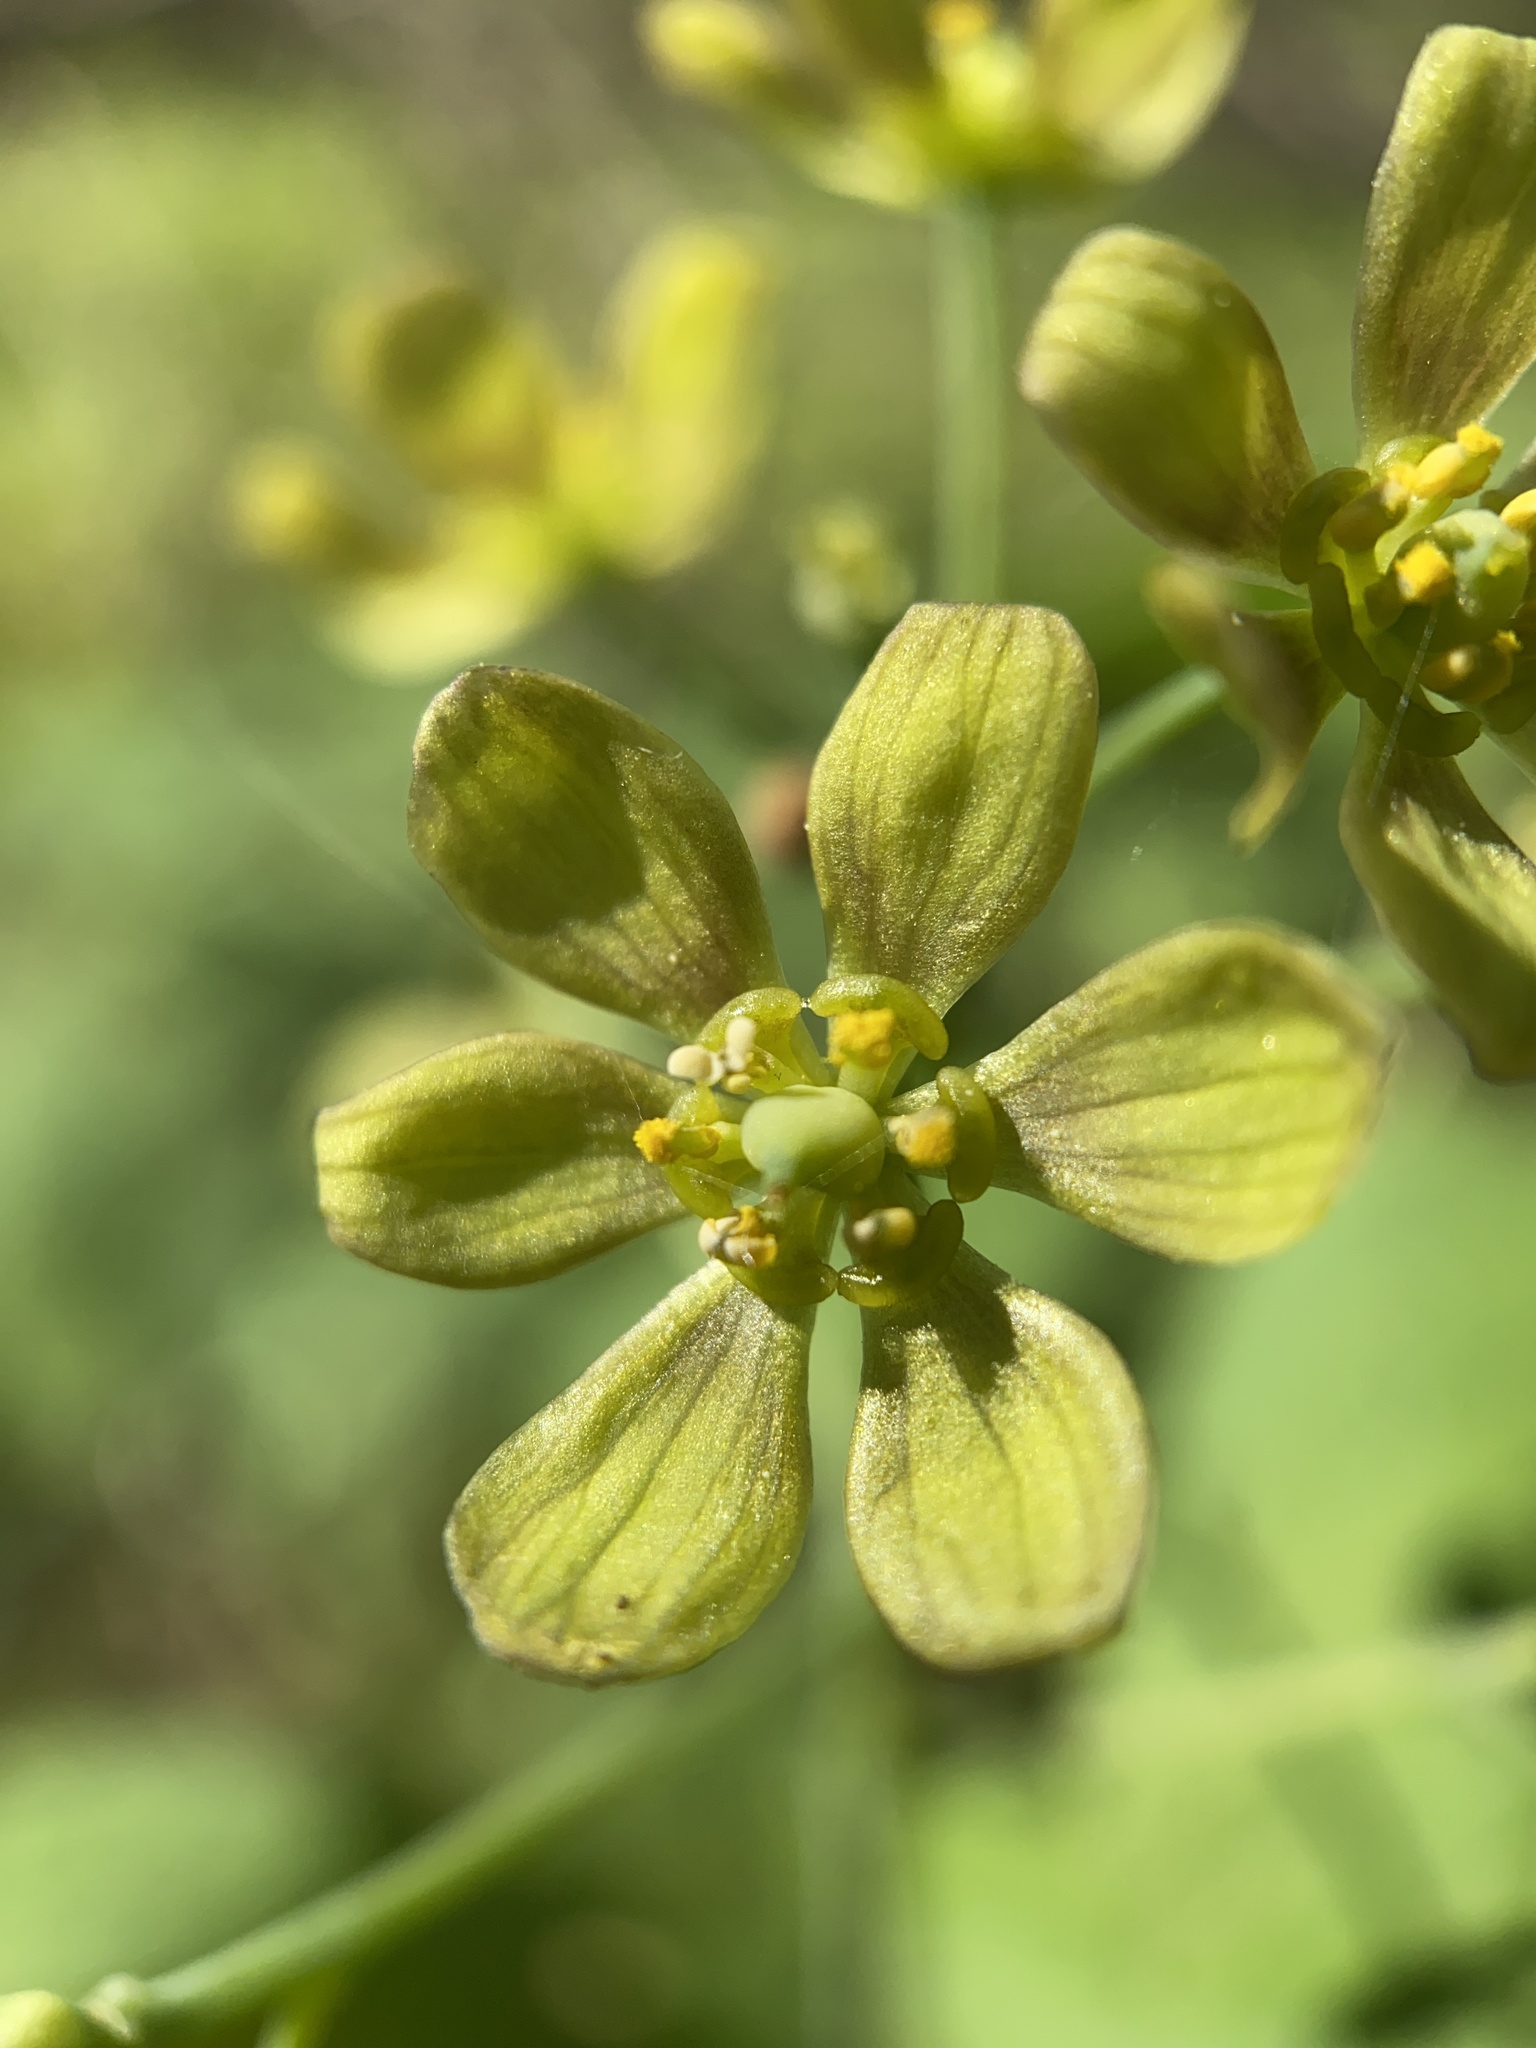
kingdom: Plantae
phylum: Tracheophyta
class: Magnoliopsida
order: Ranunculales
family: Berberidaceae
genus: Caulophyllum
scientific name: Caulophyllum thalictroides
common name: Blue cohosh
